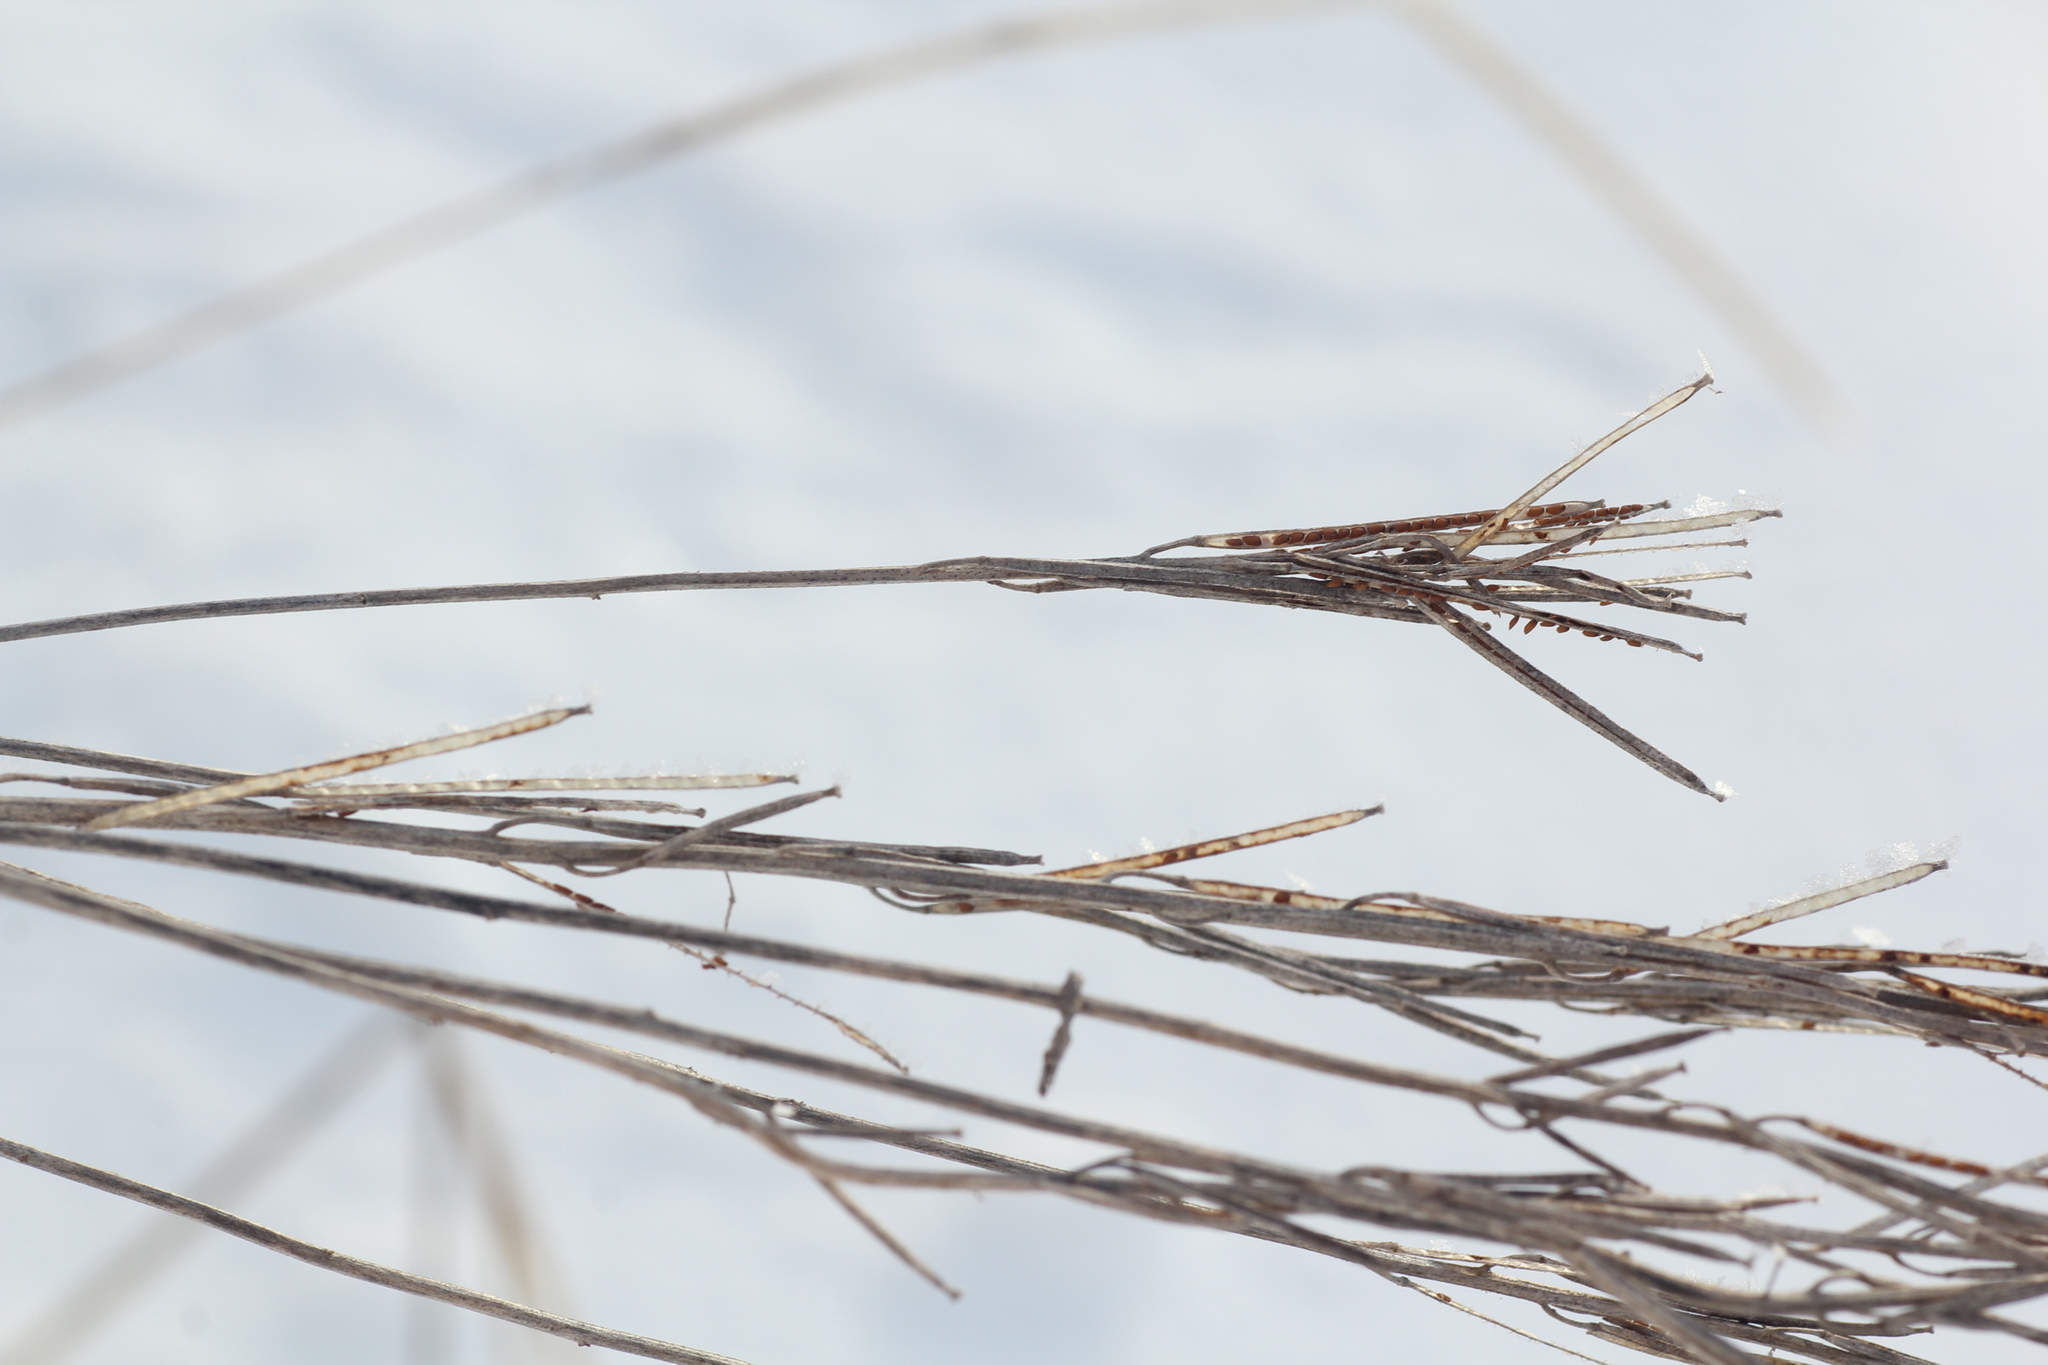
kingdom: Plantae
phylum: Tracheophyta
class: Magnoliopsida
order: Brassicales
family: Brassicaceae
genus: Erysimum
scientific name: Erysimum hieraciifolium
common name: European wallflower
